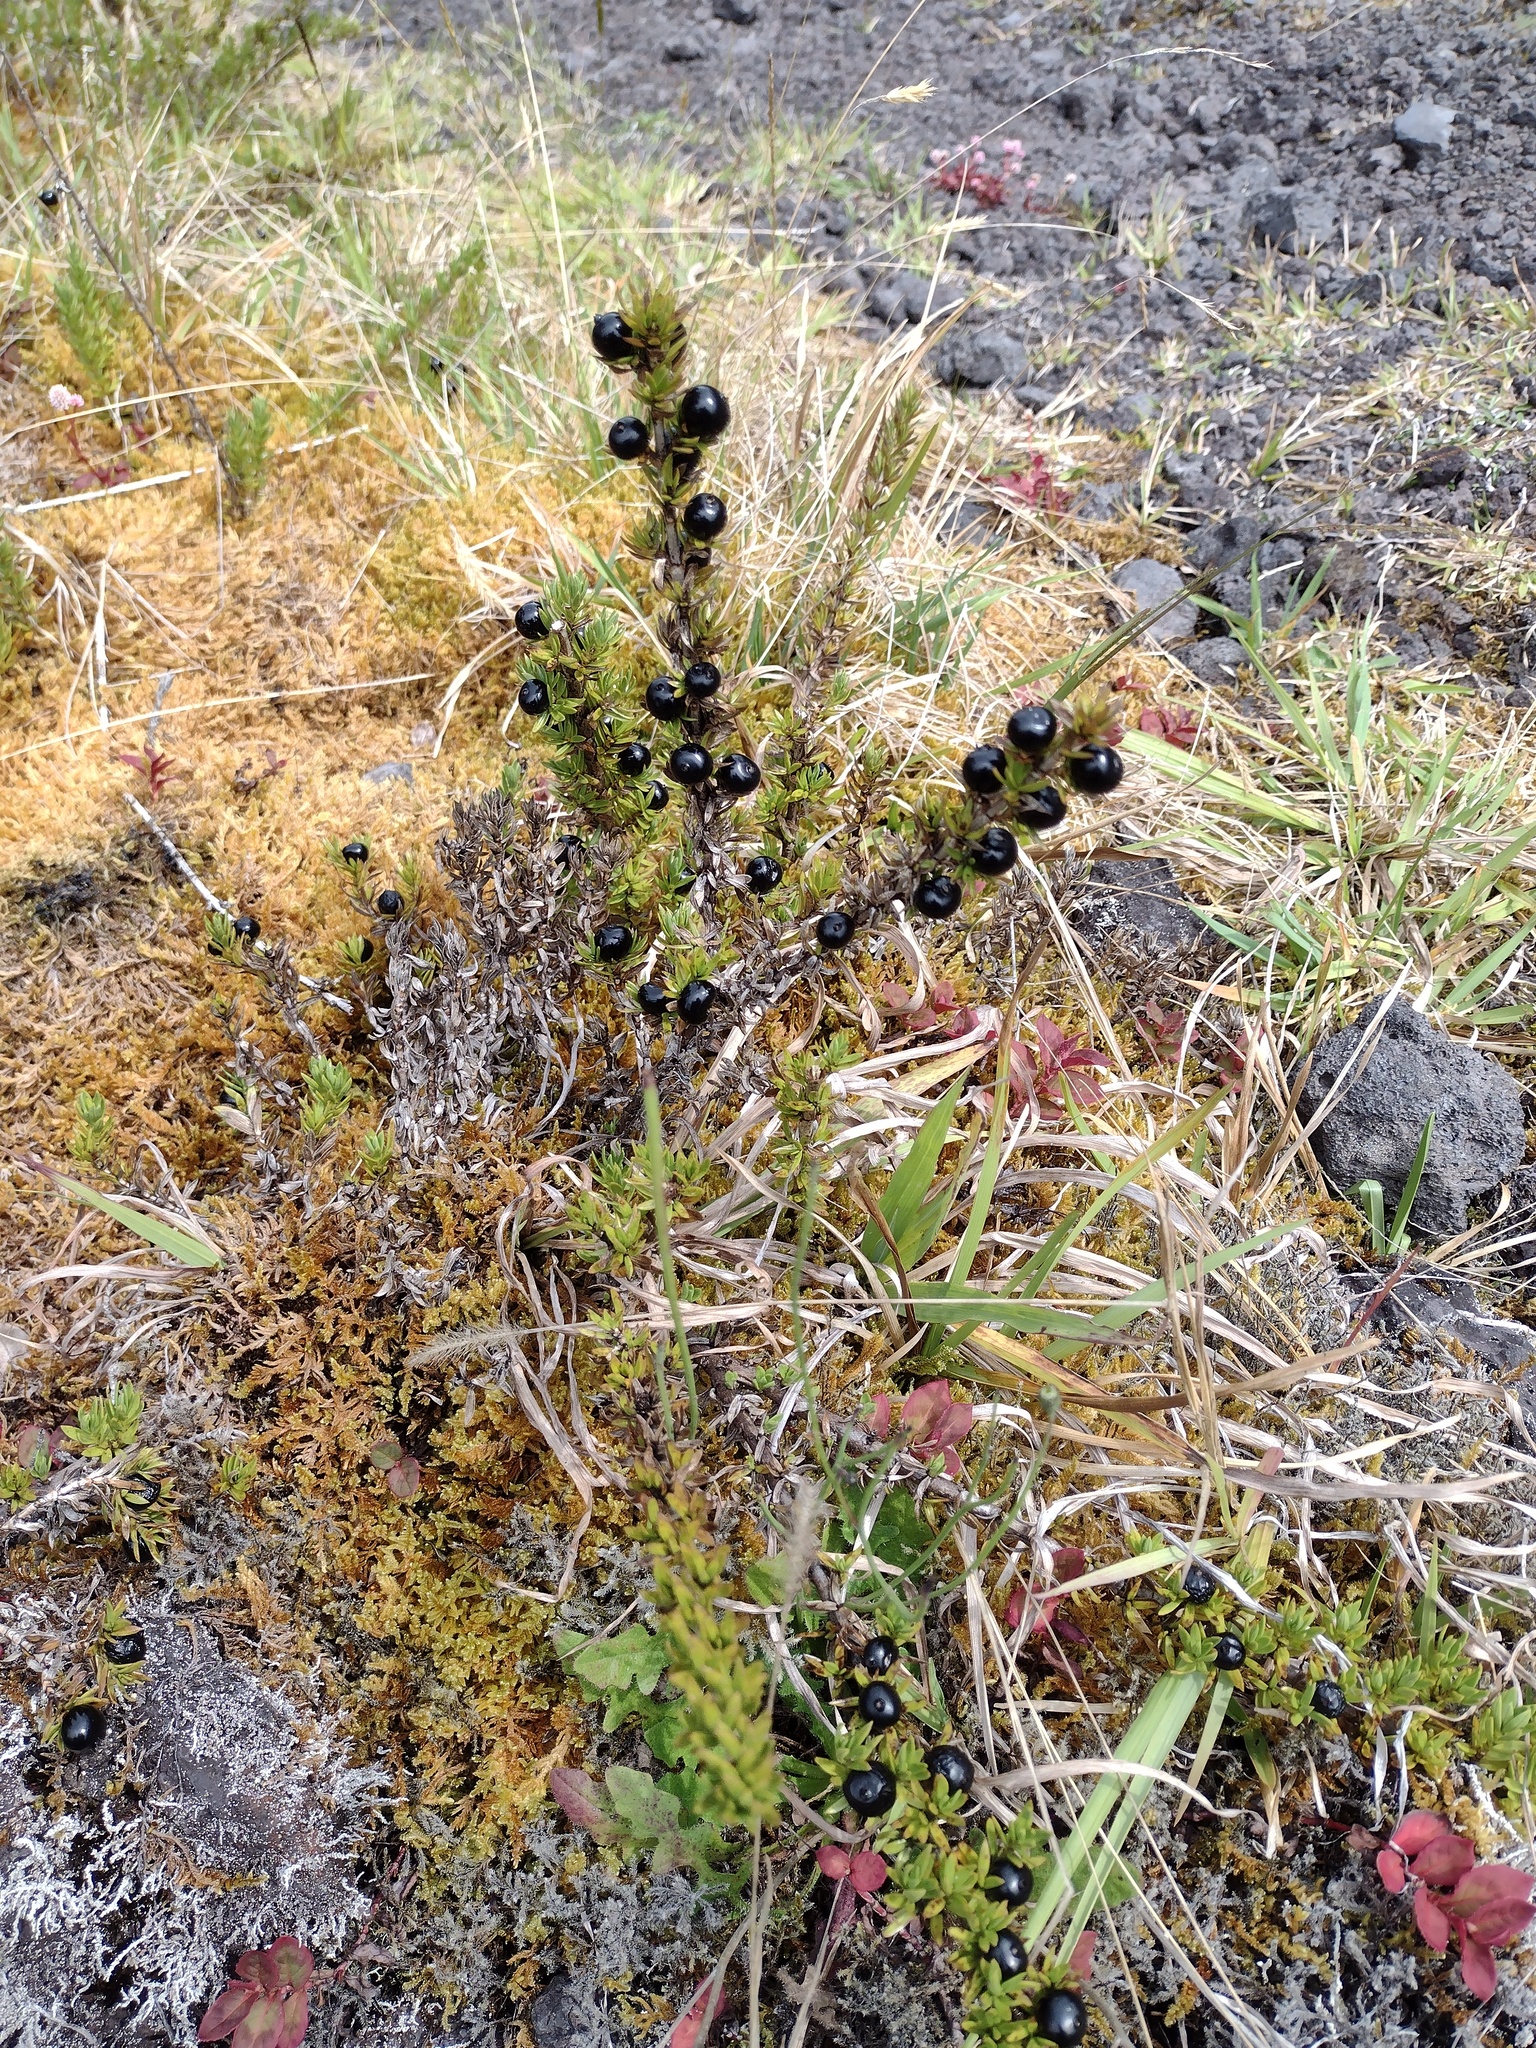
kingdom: Plantae
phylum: Tracheophyta
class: Magnoliopsida
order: Gentianales
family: Rubiaceae
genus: Coprosma
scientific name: Coprosma ernodeoides
